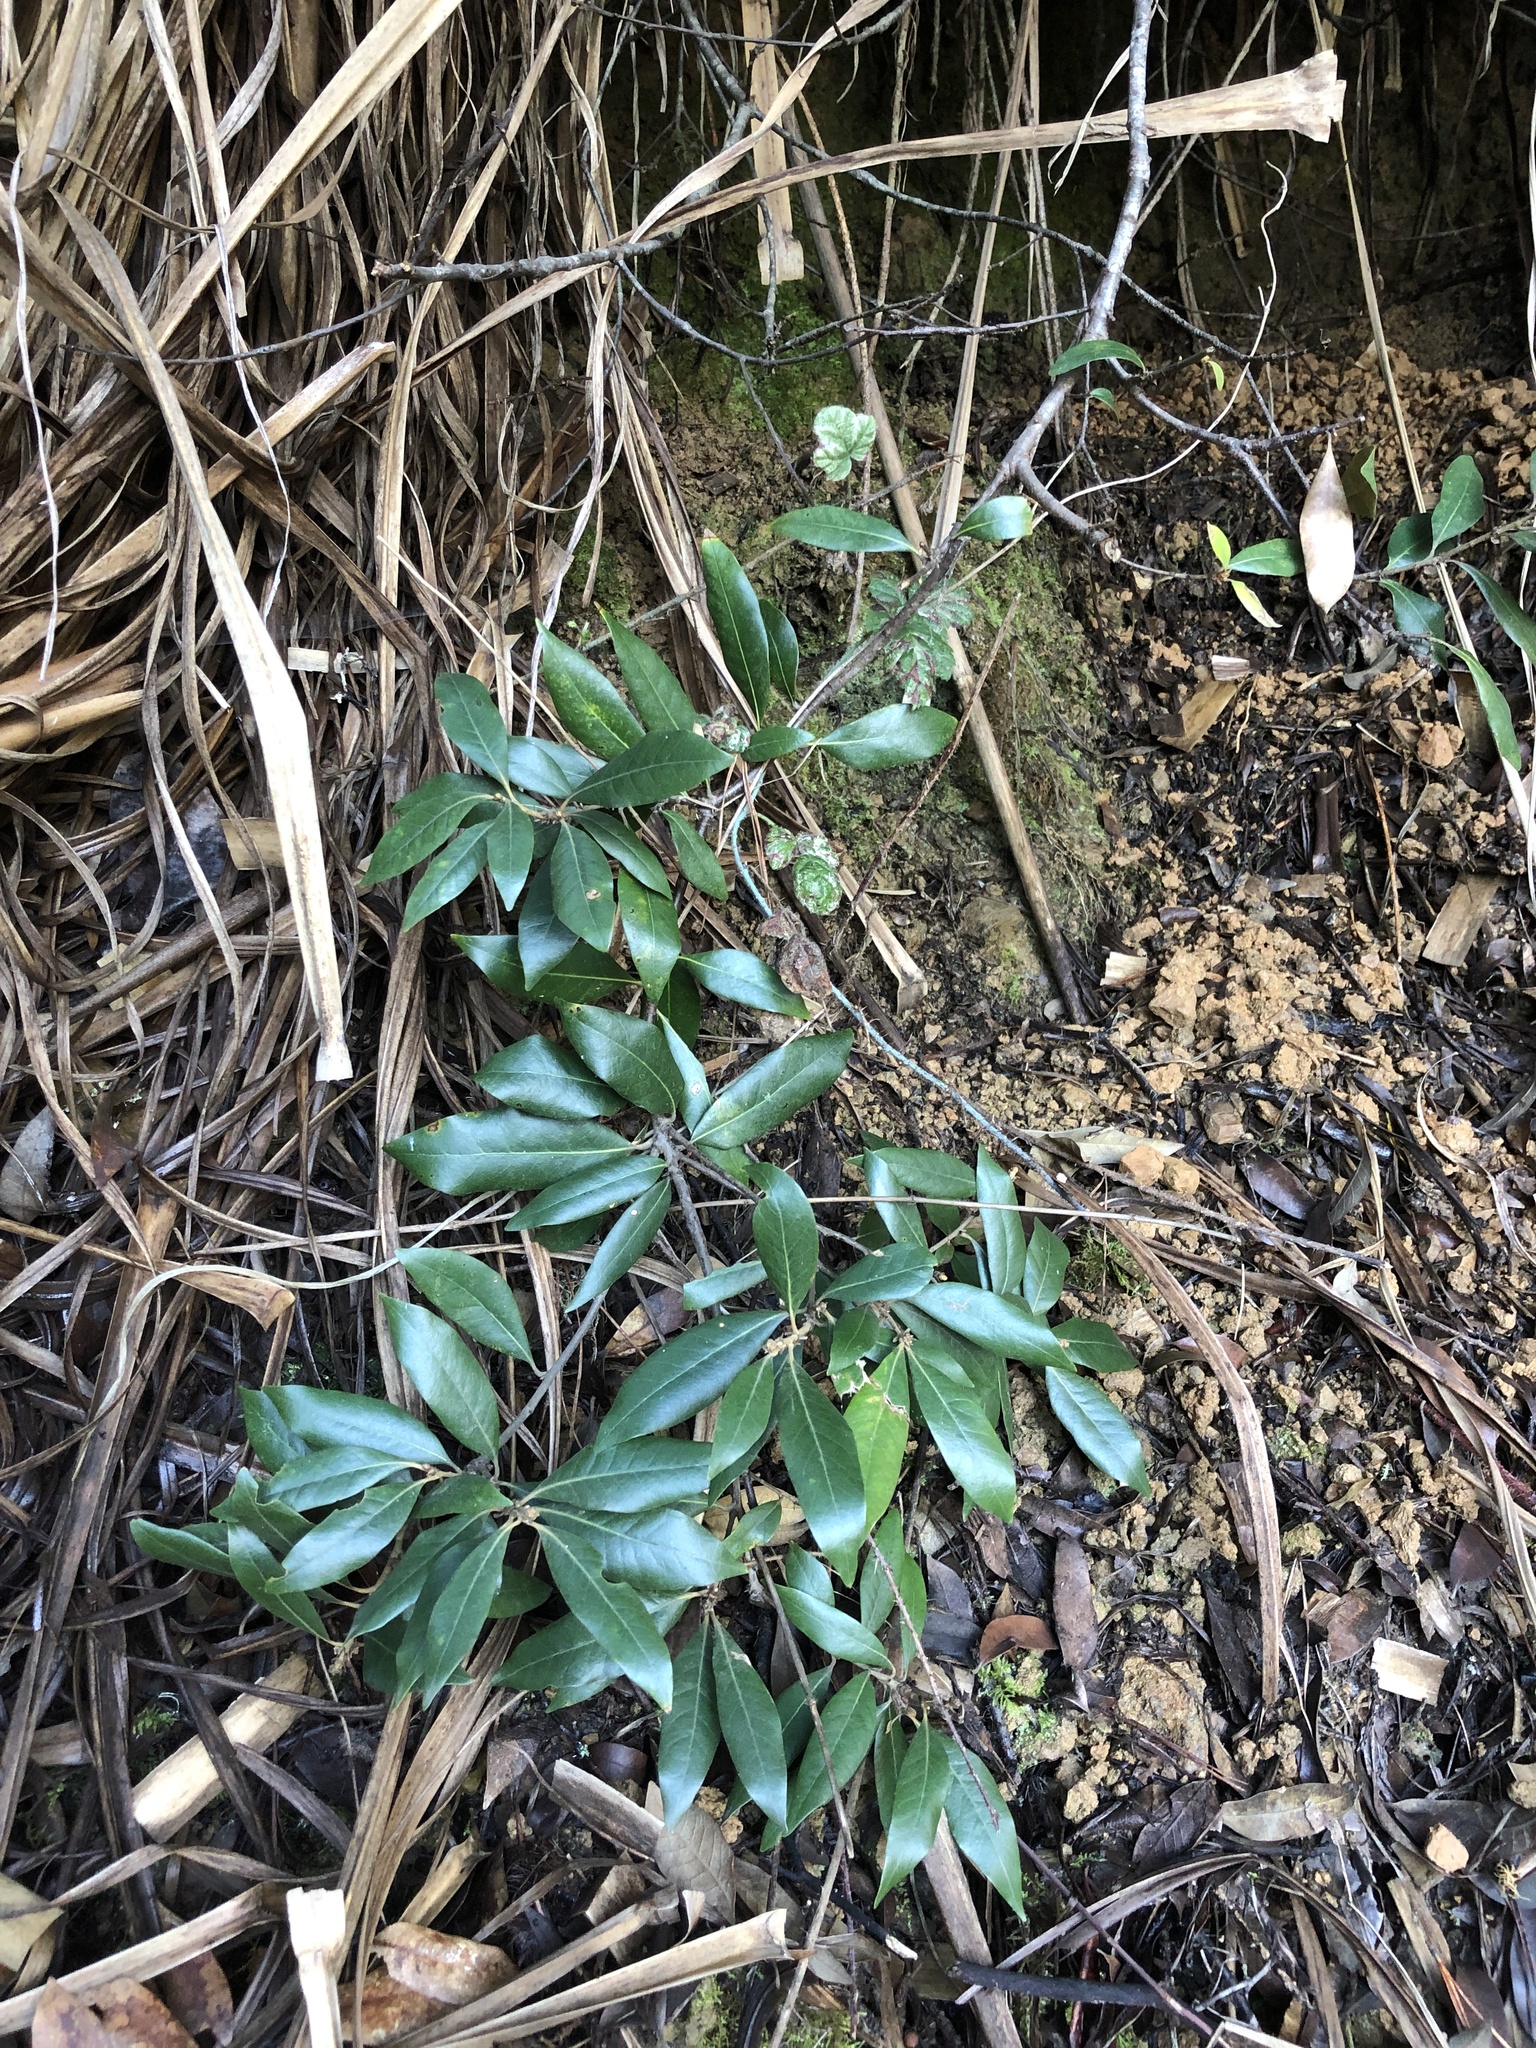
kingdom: Plantae
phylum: Tracheophyta
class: Magnoliopsida
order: Fagales
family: Fagaceae
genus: Chrysolepis
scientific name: Chrysolepis chrysophylla
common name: Giant chinquapin
